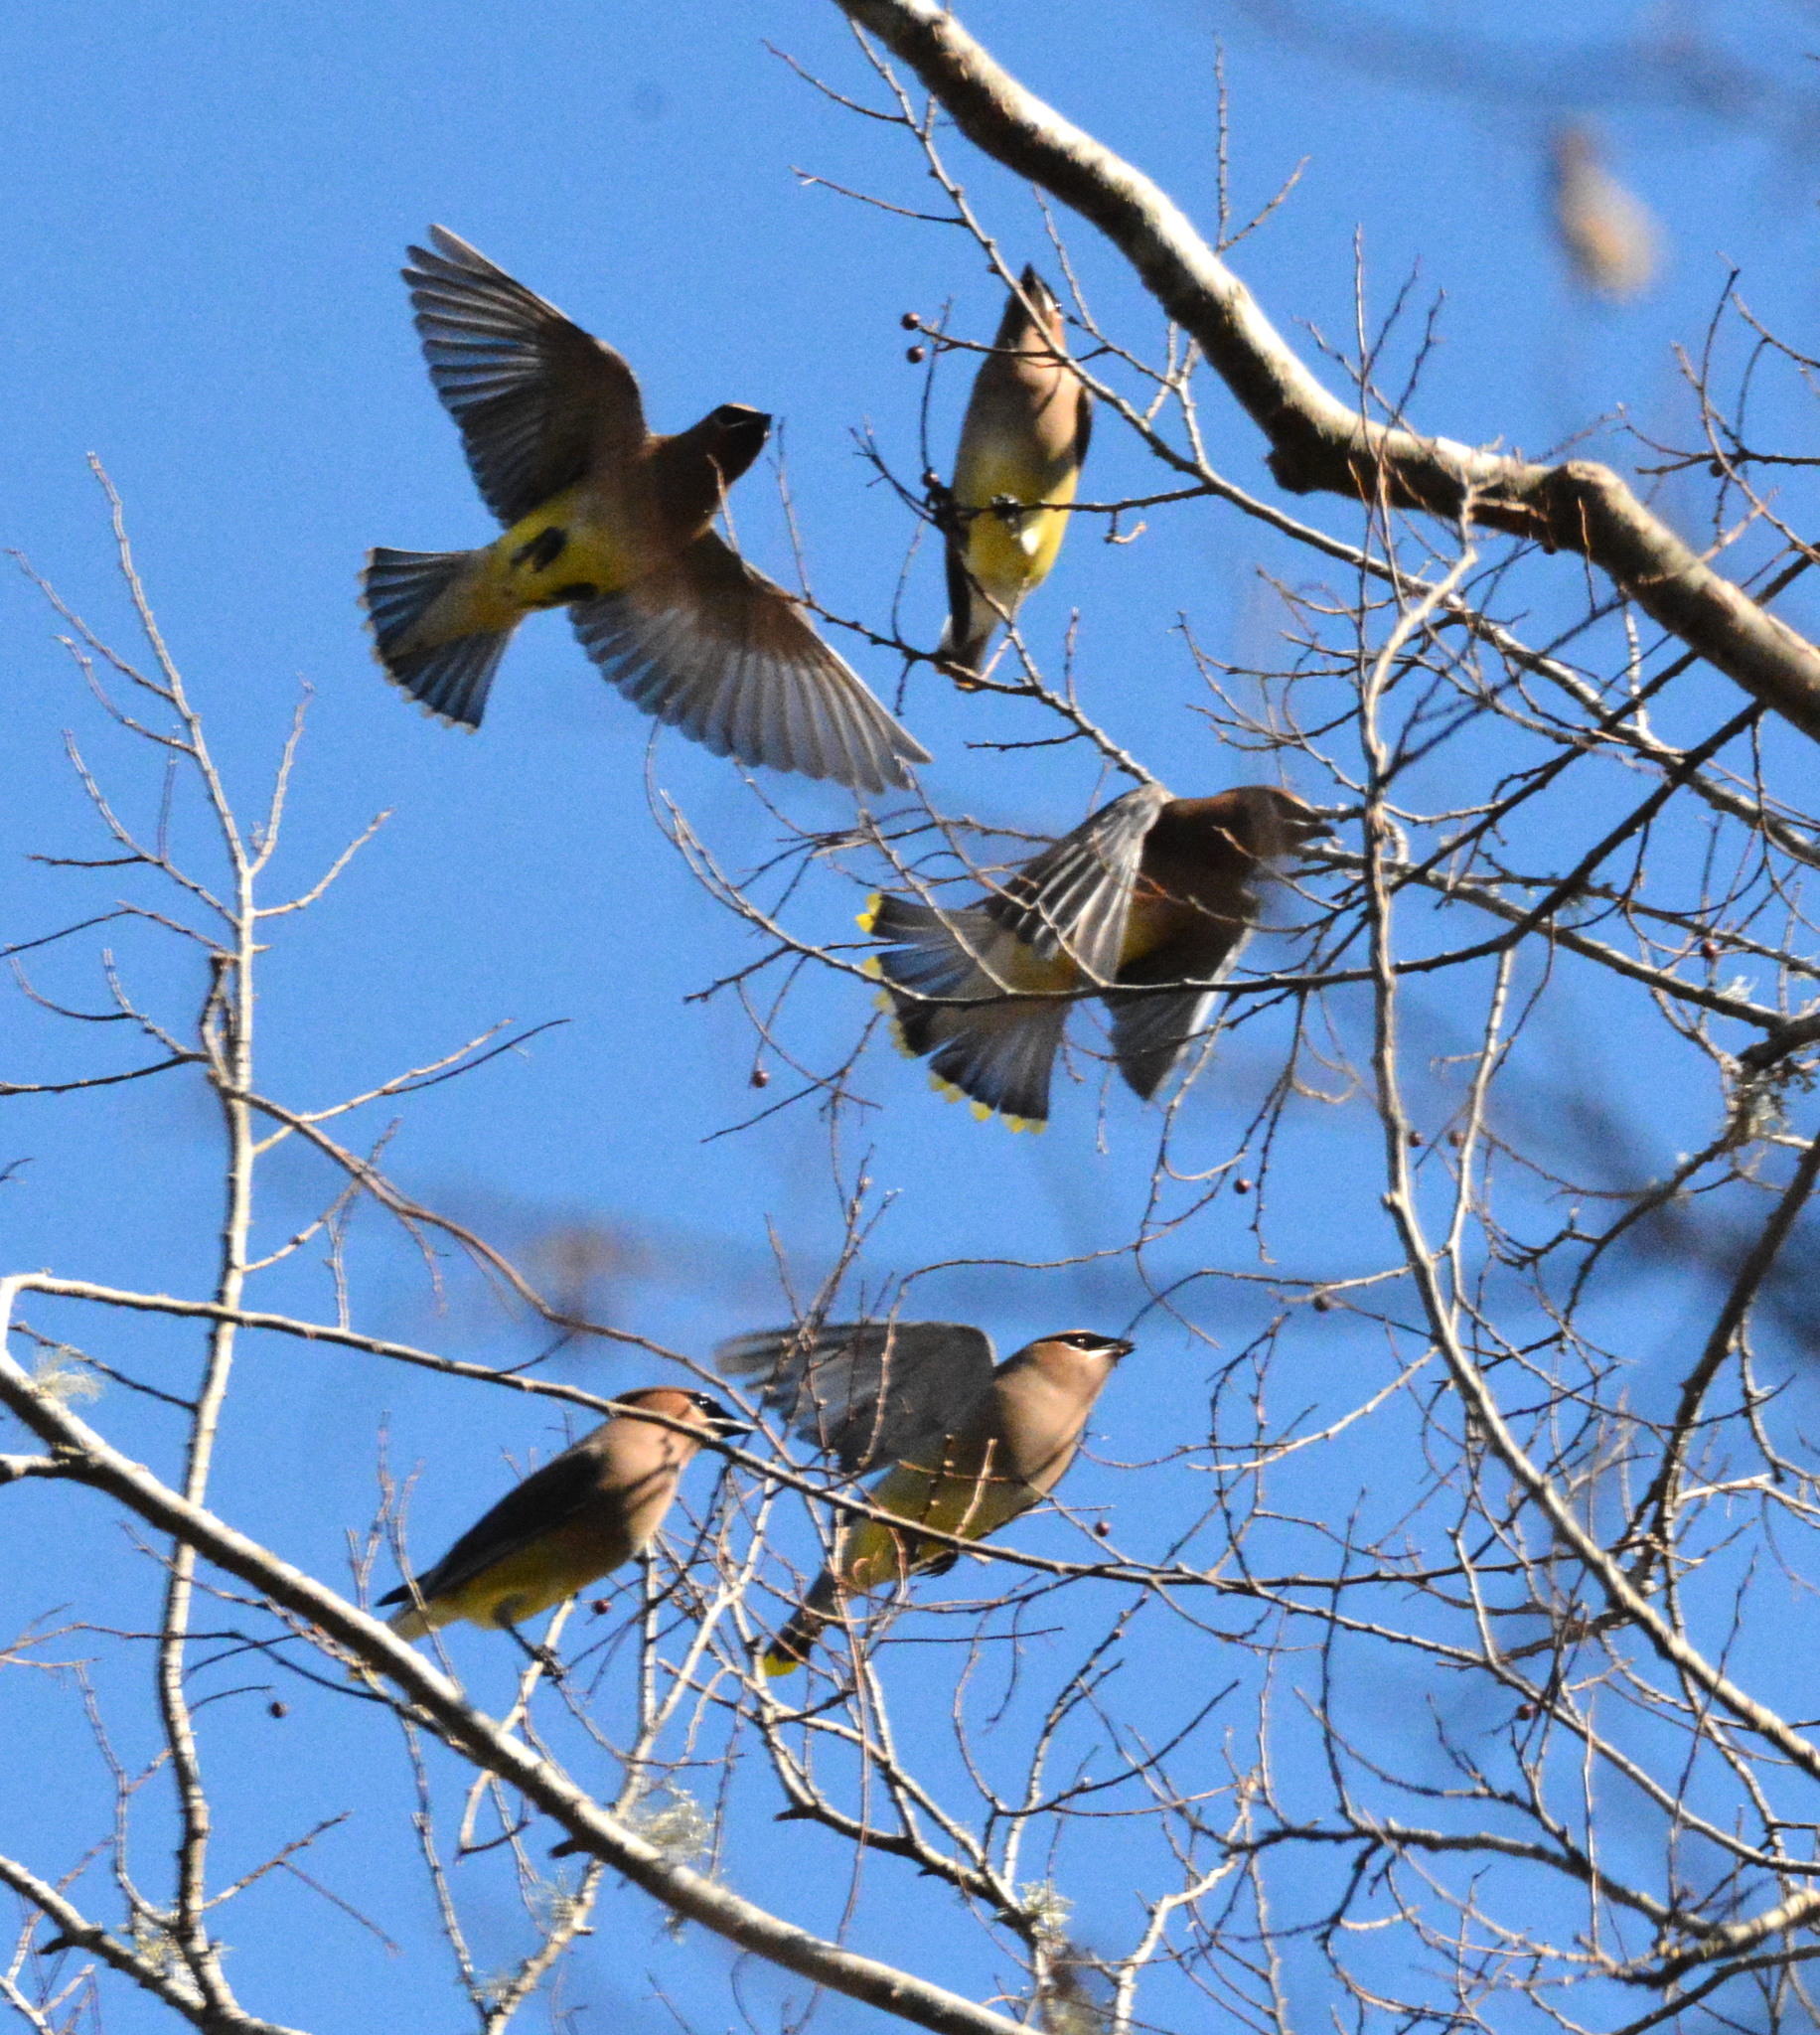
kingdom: Animalia
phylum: Chordata
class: Aves
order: Passeriformes
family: Bombycillidae
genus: Bombycilla
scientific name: Bombycilla cedrorum
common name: Cedar waxwing
